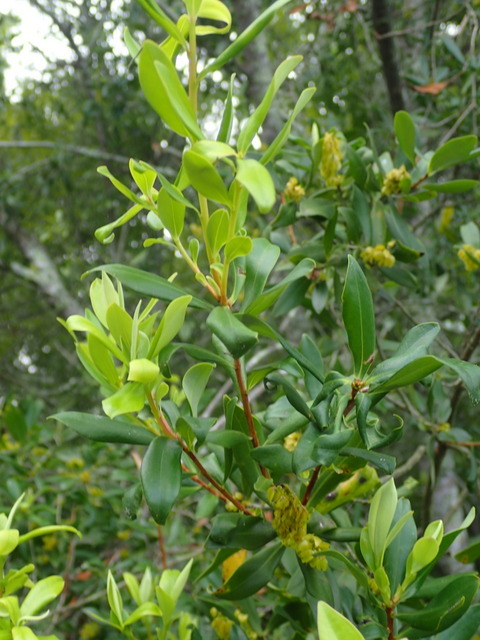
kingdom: Plantae
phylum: Tracheophyta
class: Magnoliopsida
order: Ericales
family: Cyrillaceae
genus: Cliftonia
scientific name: Cliftonia monophylla
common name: Titi
